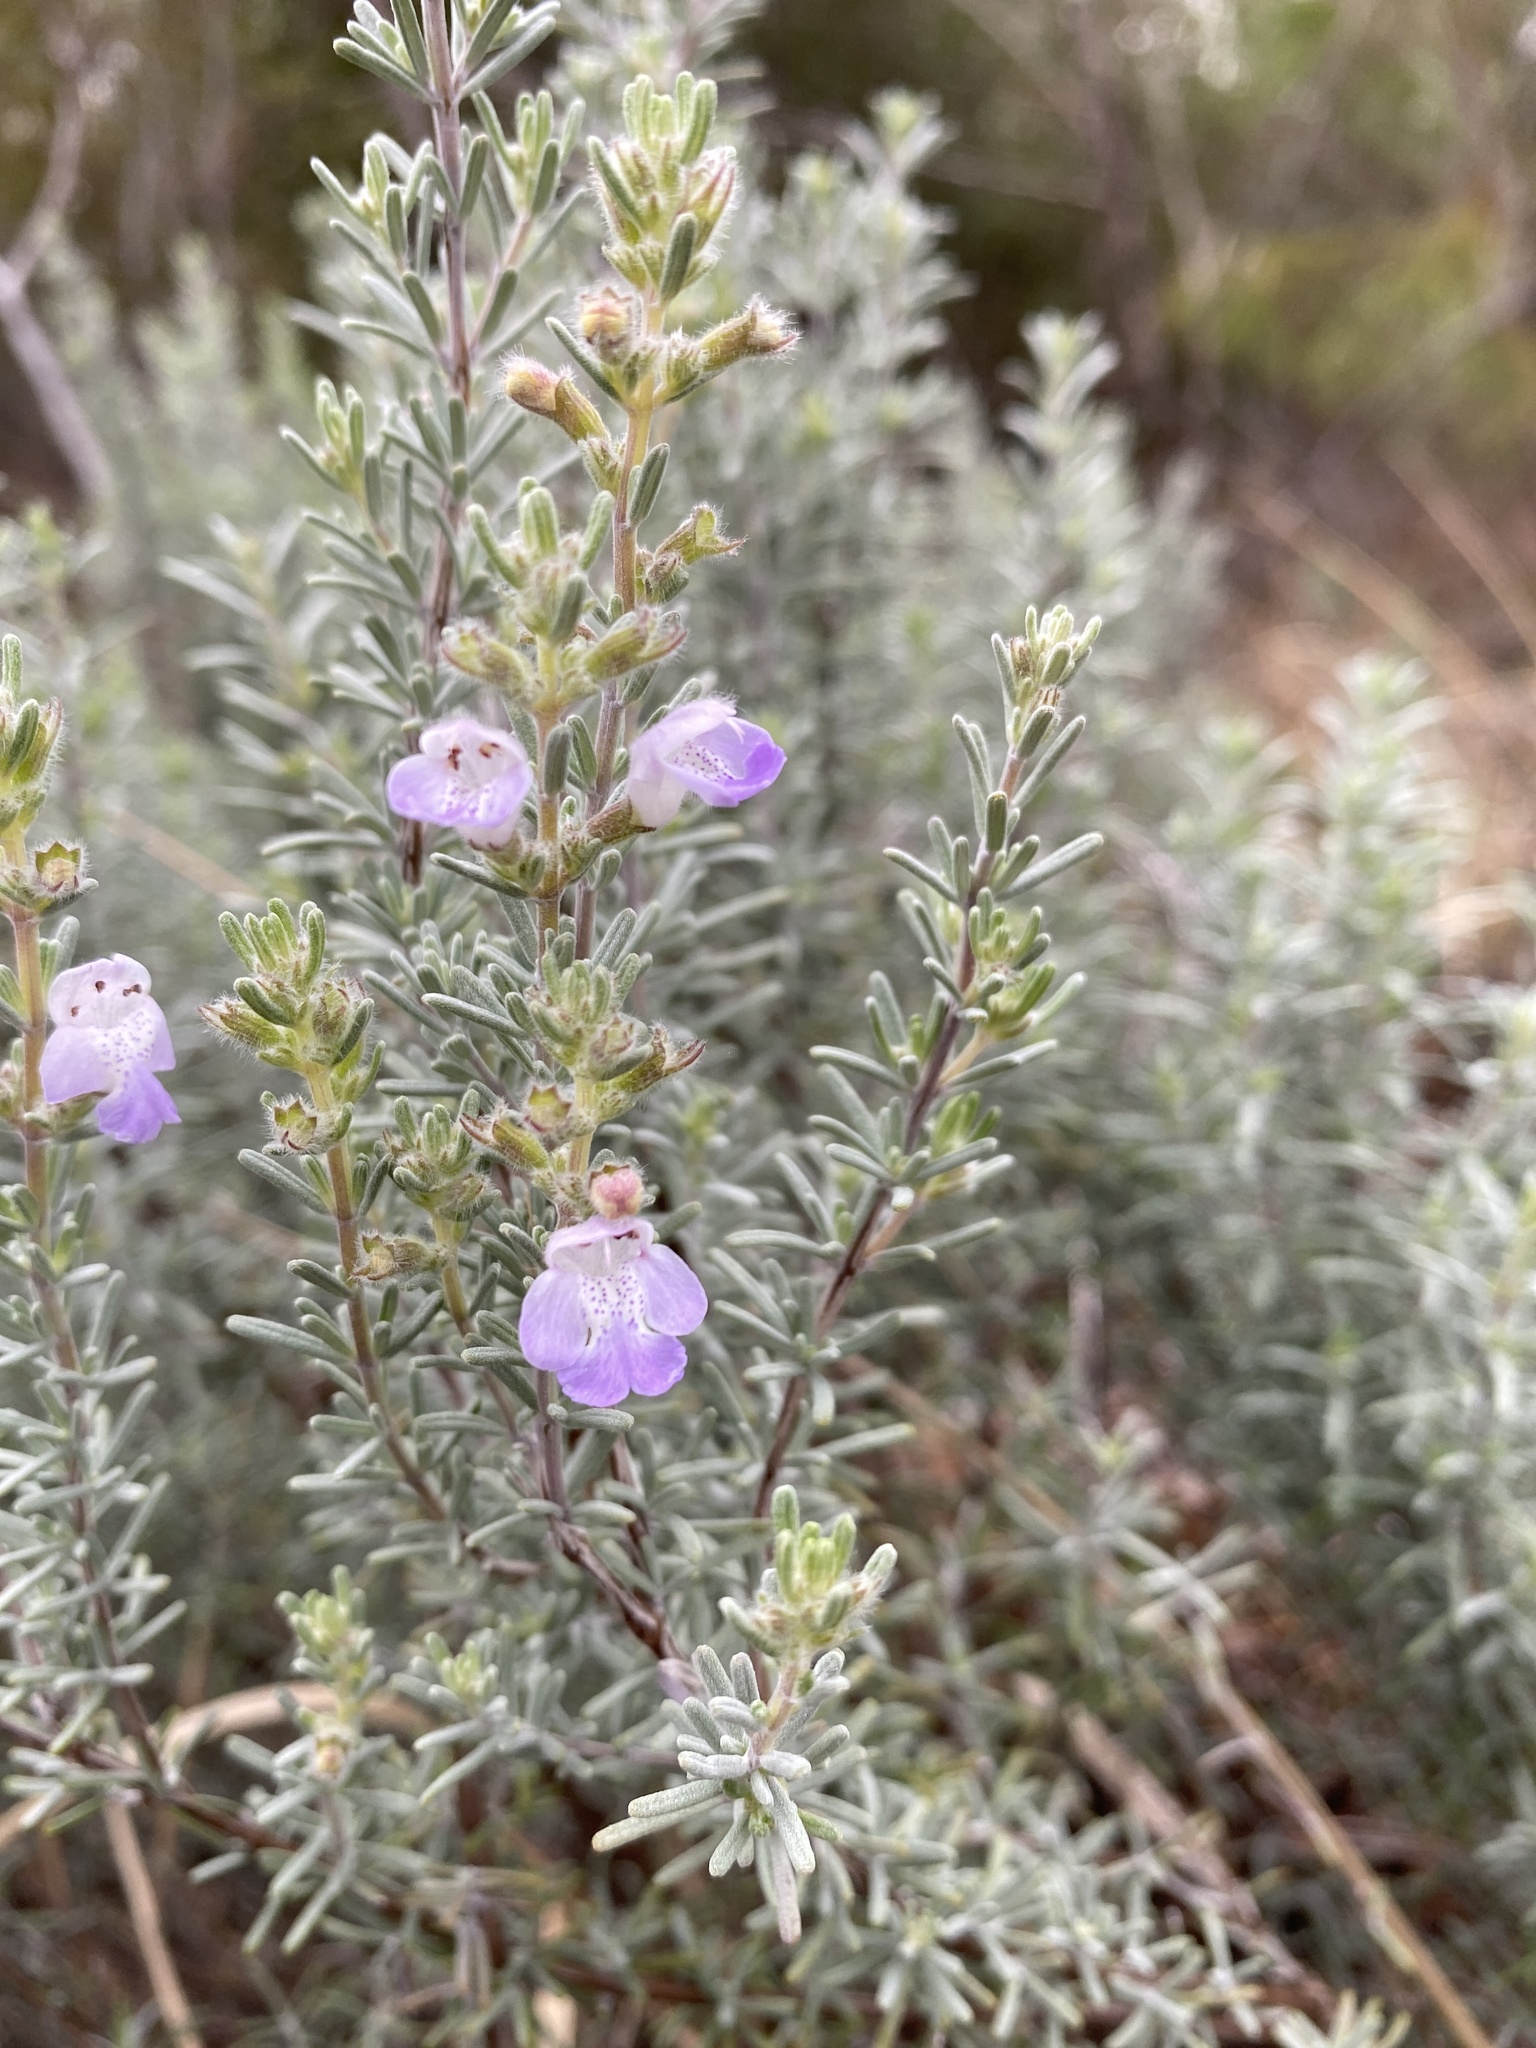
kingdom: Plantae
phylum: Tracheophyta
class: Magnoliopsida
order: Lamiales
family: Lamiaceae
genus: Conradina
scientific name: Conradina canescens
